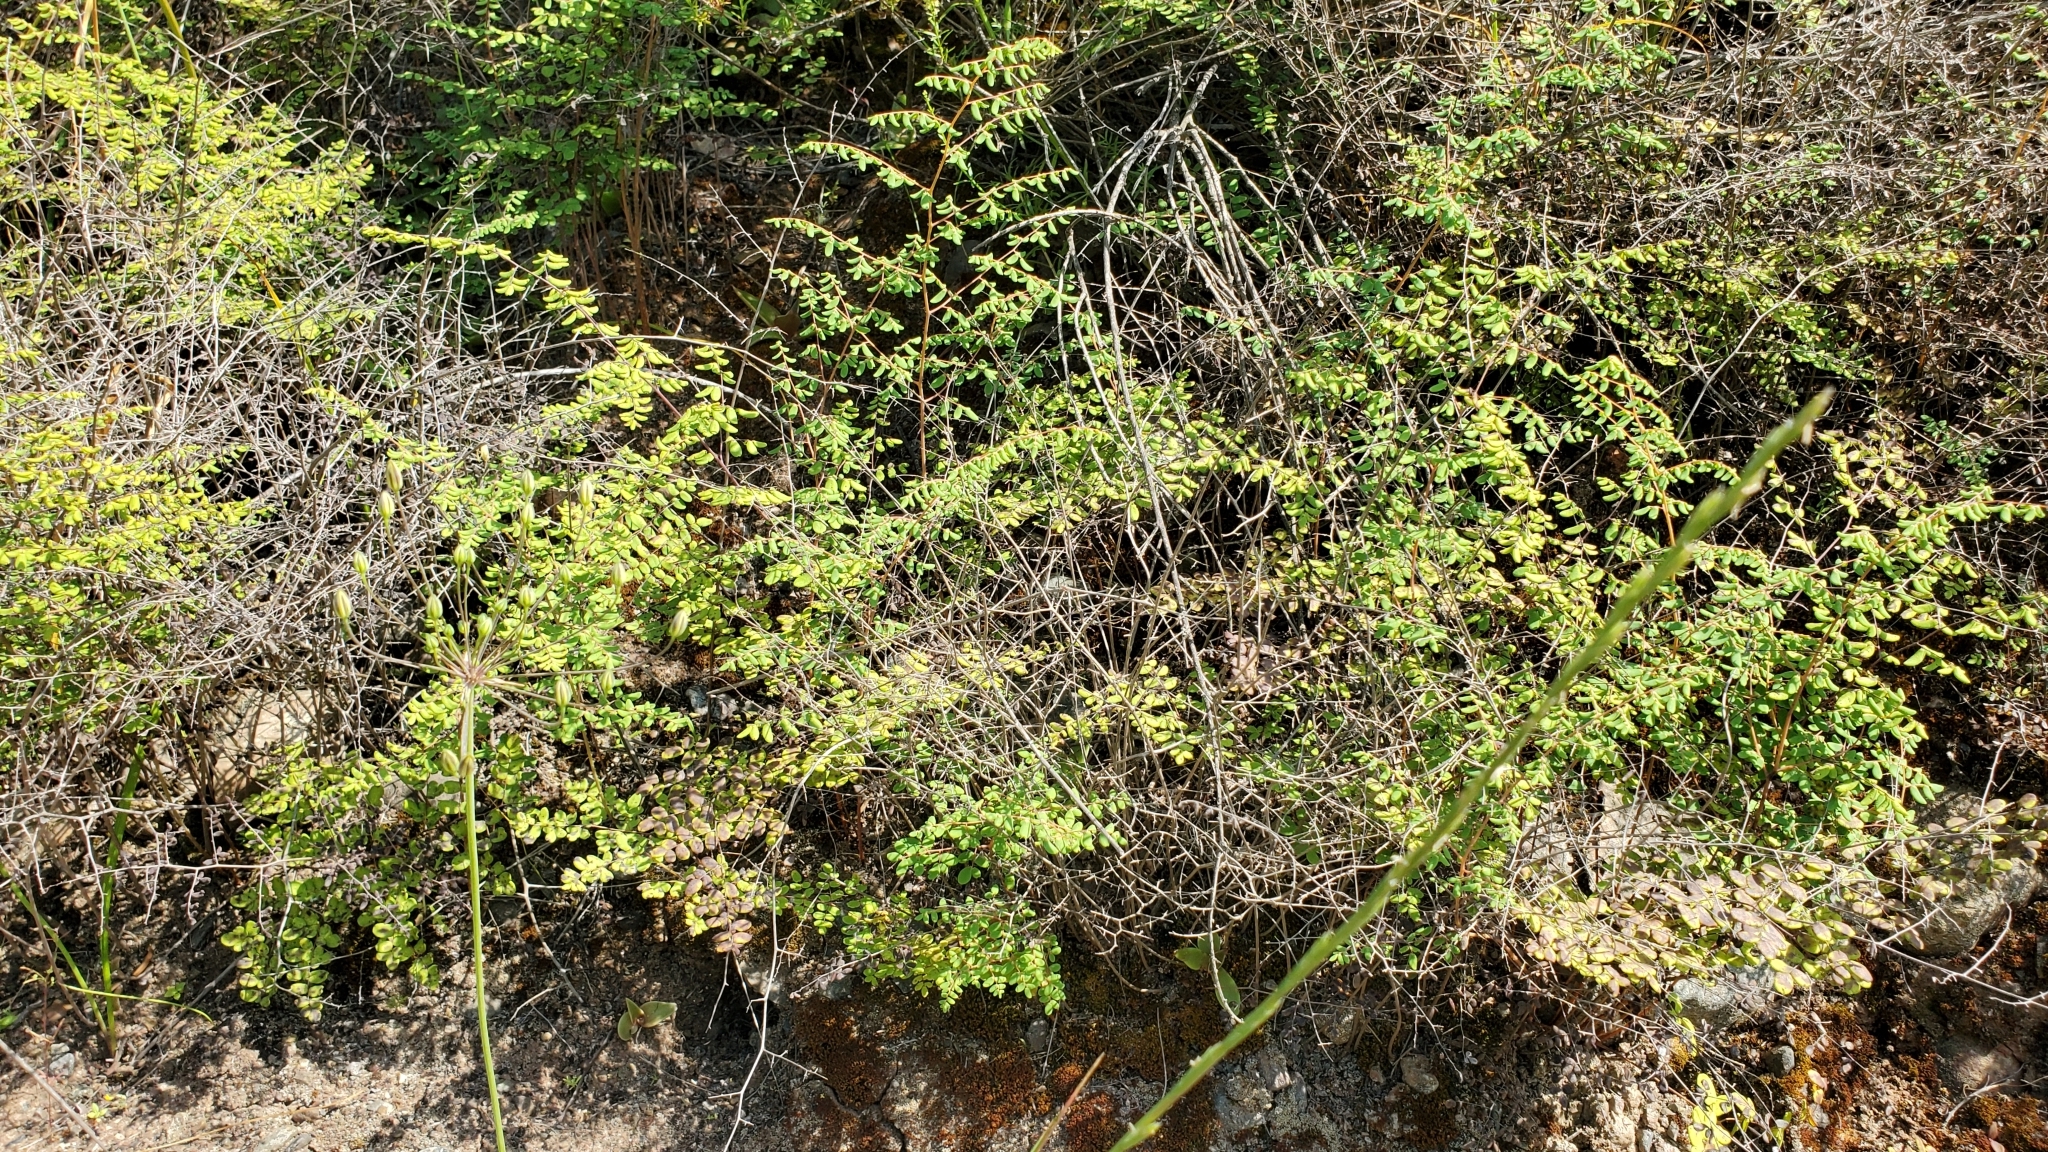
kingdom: Plantae
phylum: Tracheophyta
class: Polypodiopsida
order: Polypodiales
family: Pteridaceae
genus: Pellaea
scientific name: Pellaea andromedifolia
